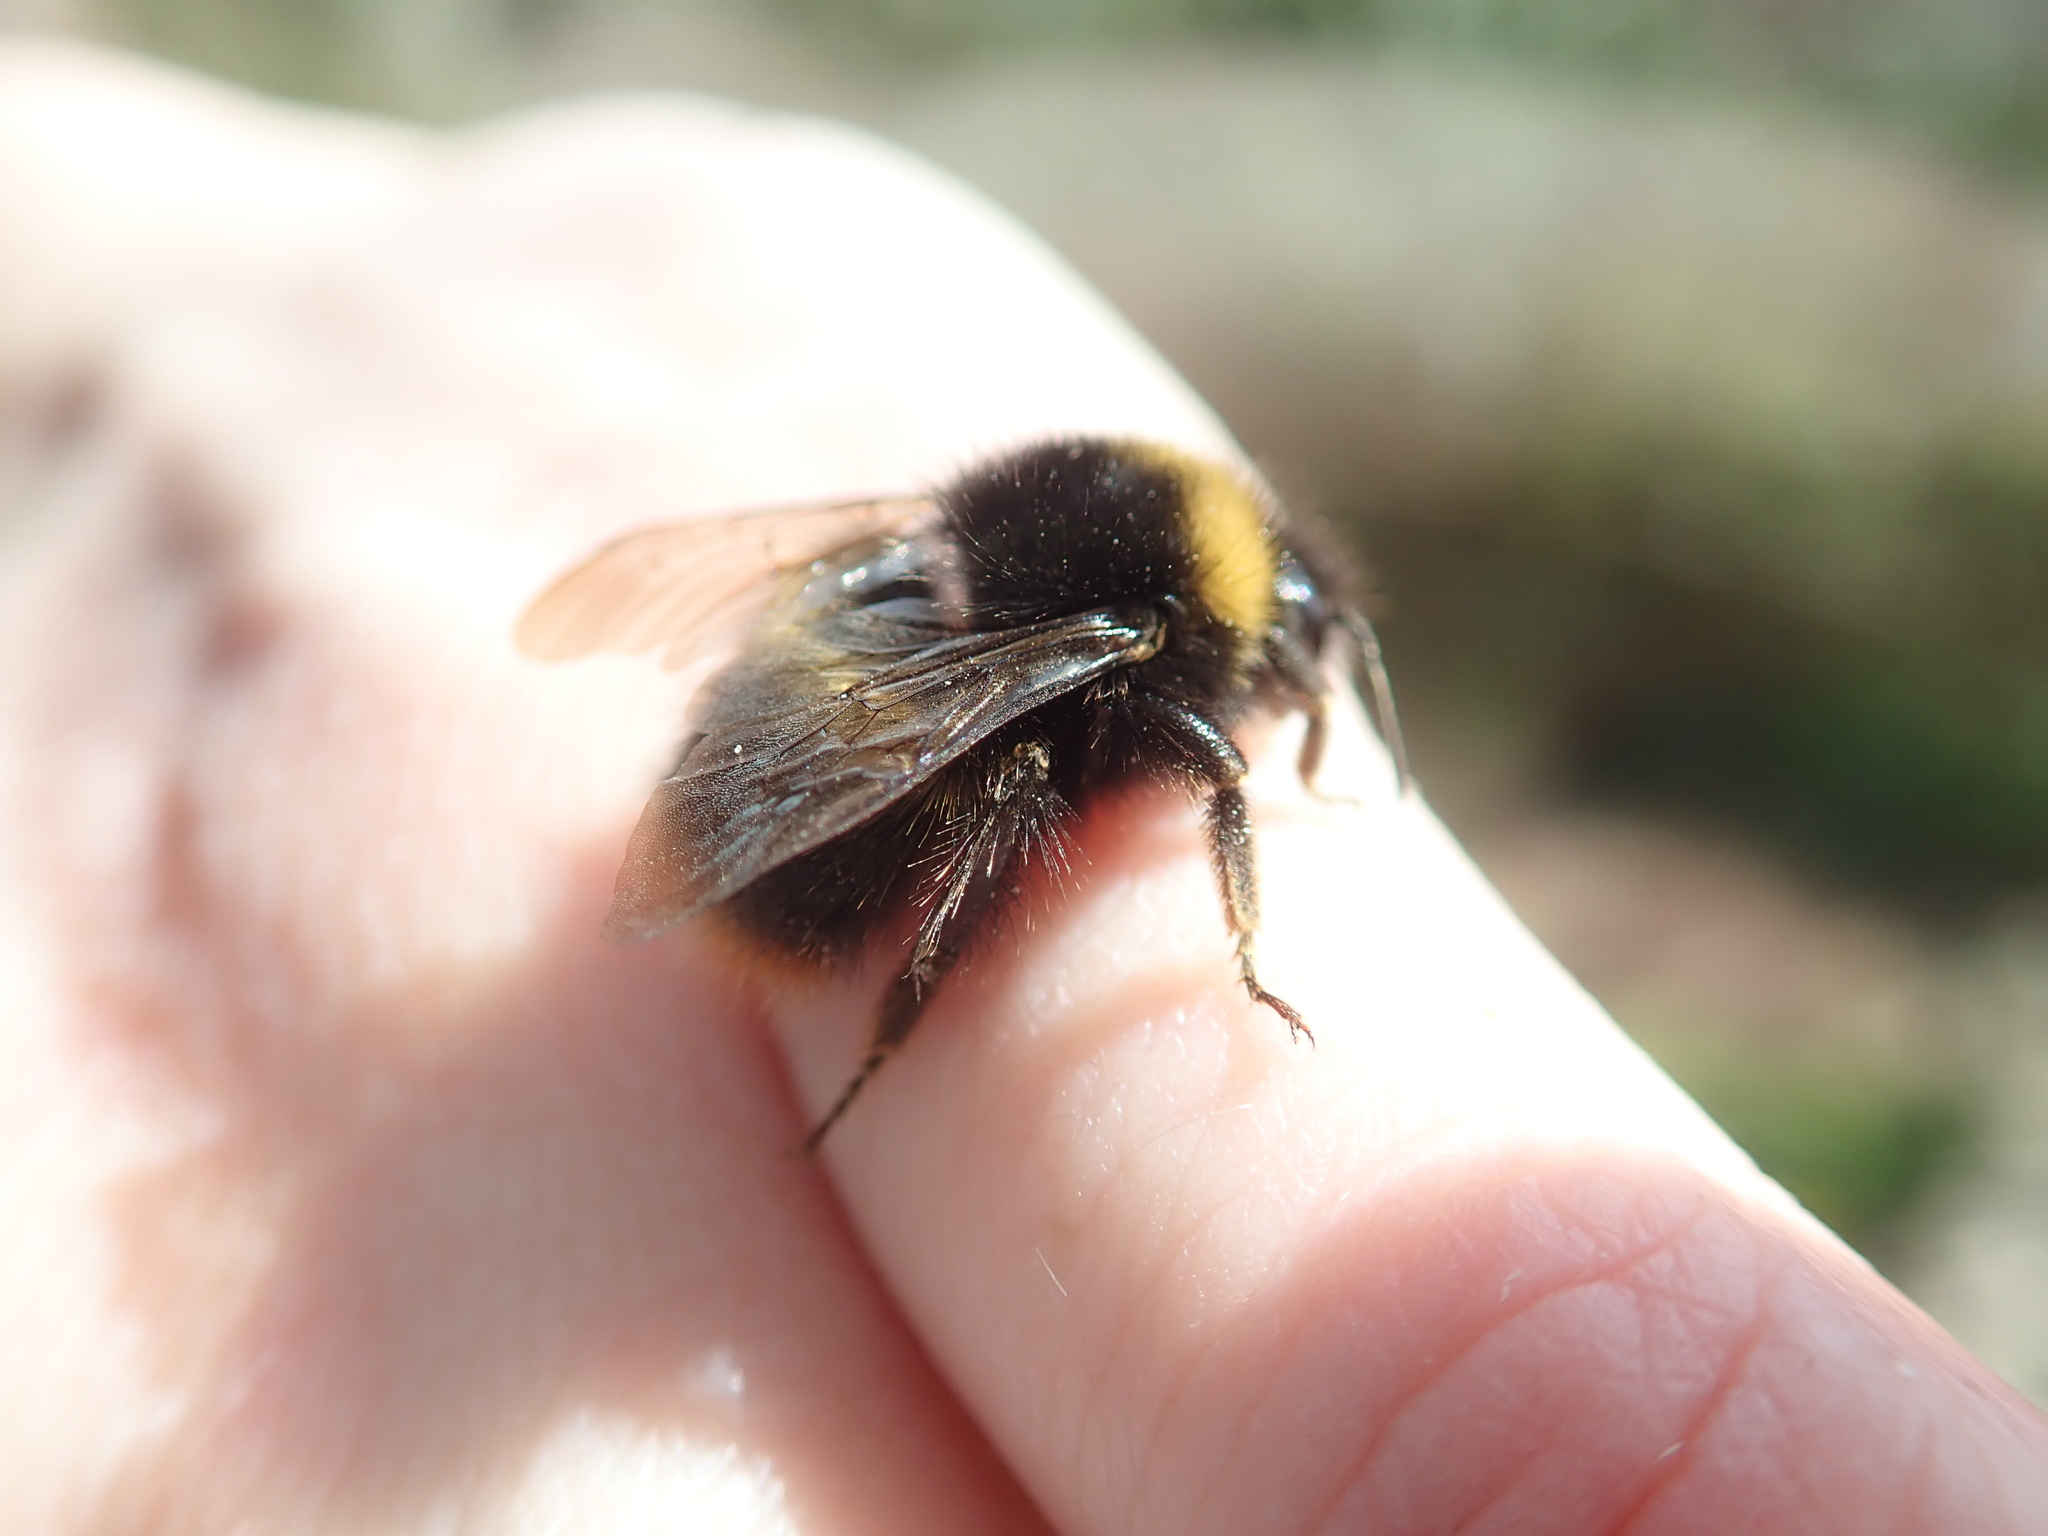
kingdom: Animalia
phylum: Arthropoda
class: Insecta
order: Hymenoptera
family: Apidae
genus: Bombus
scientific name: Bombus pratorum
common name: Early humble-bee
